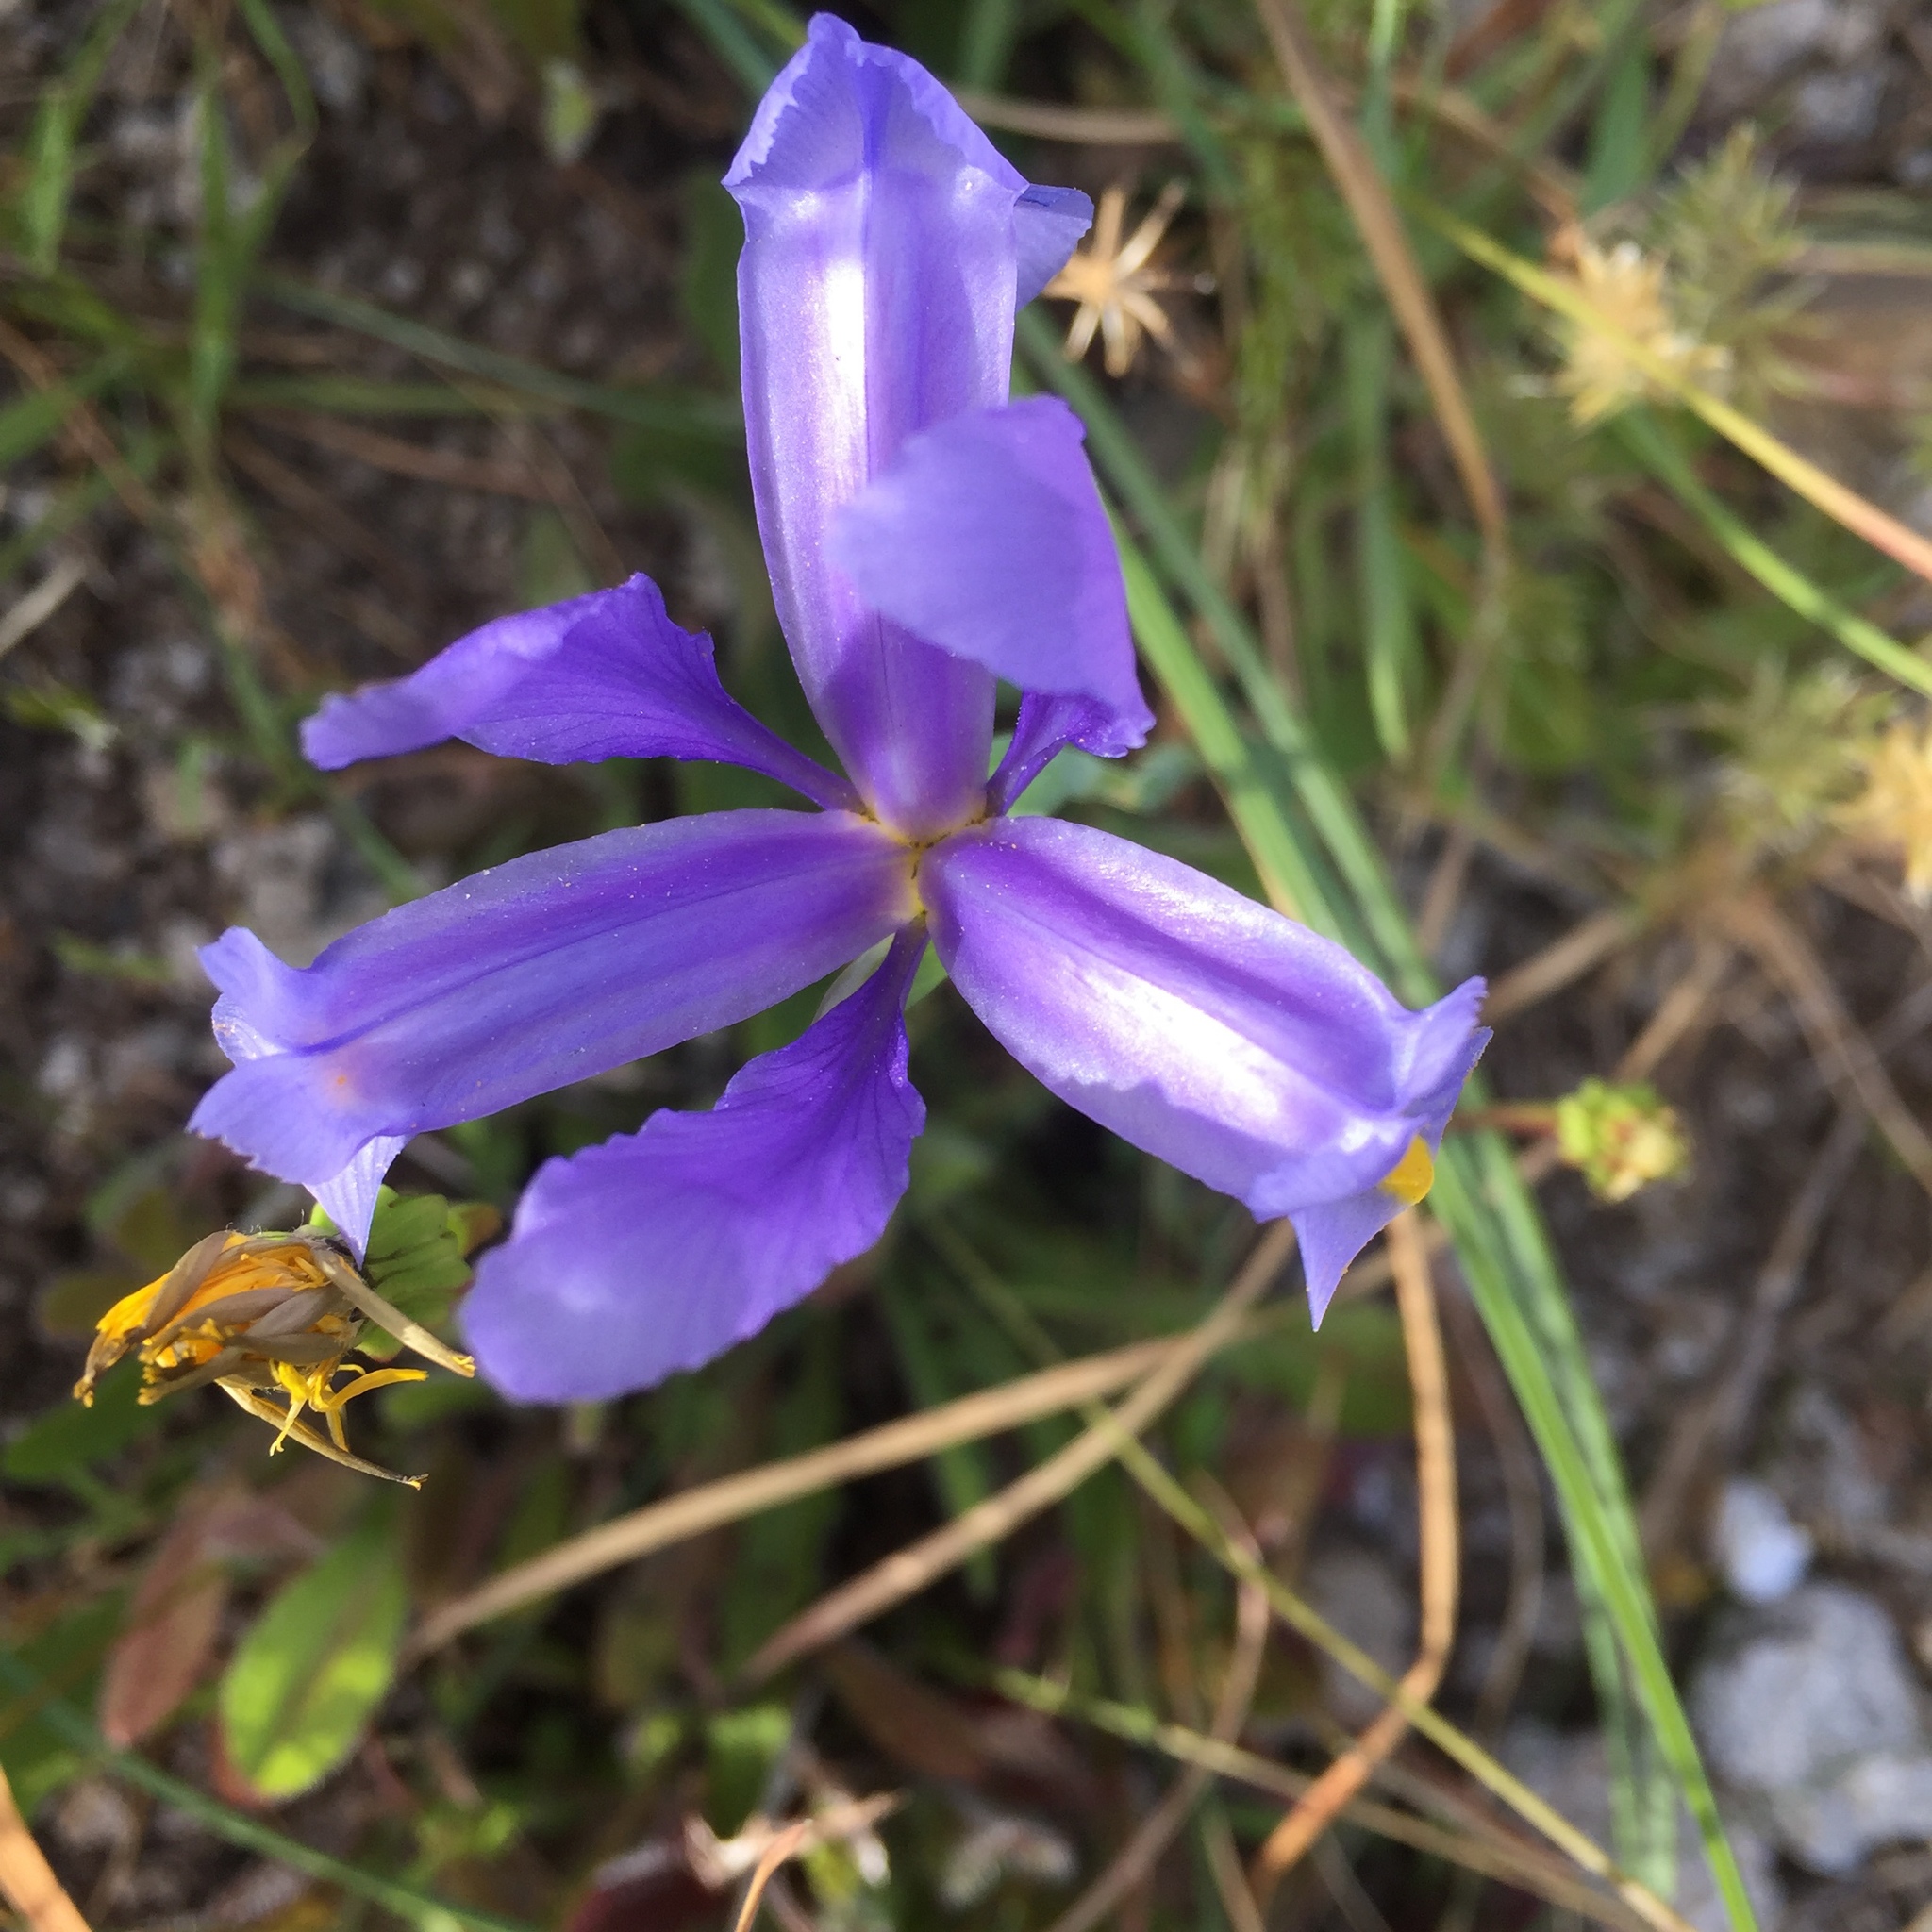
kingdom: Plantae
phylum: Tracheophyta
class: Liliopsida
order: Asparagales
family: Iridaceae
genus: Iris
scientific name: Iris xiphium
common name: Spanish iris
